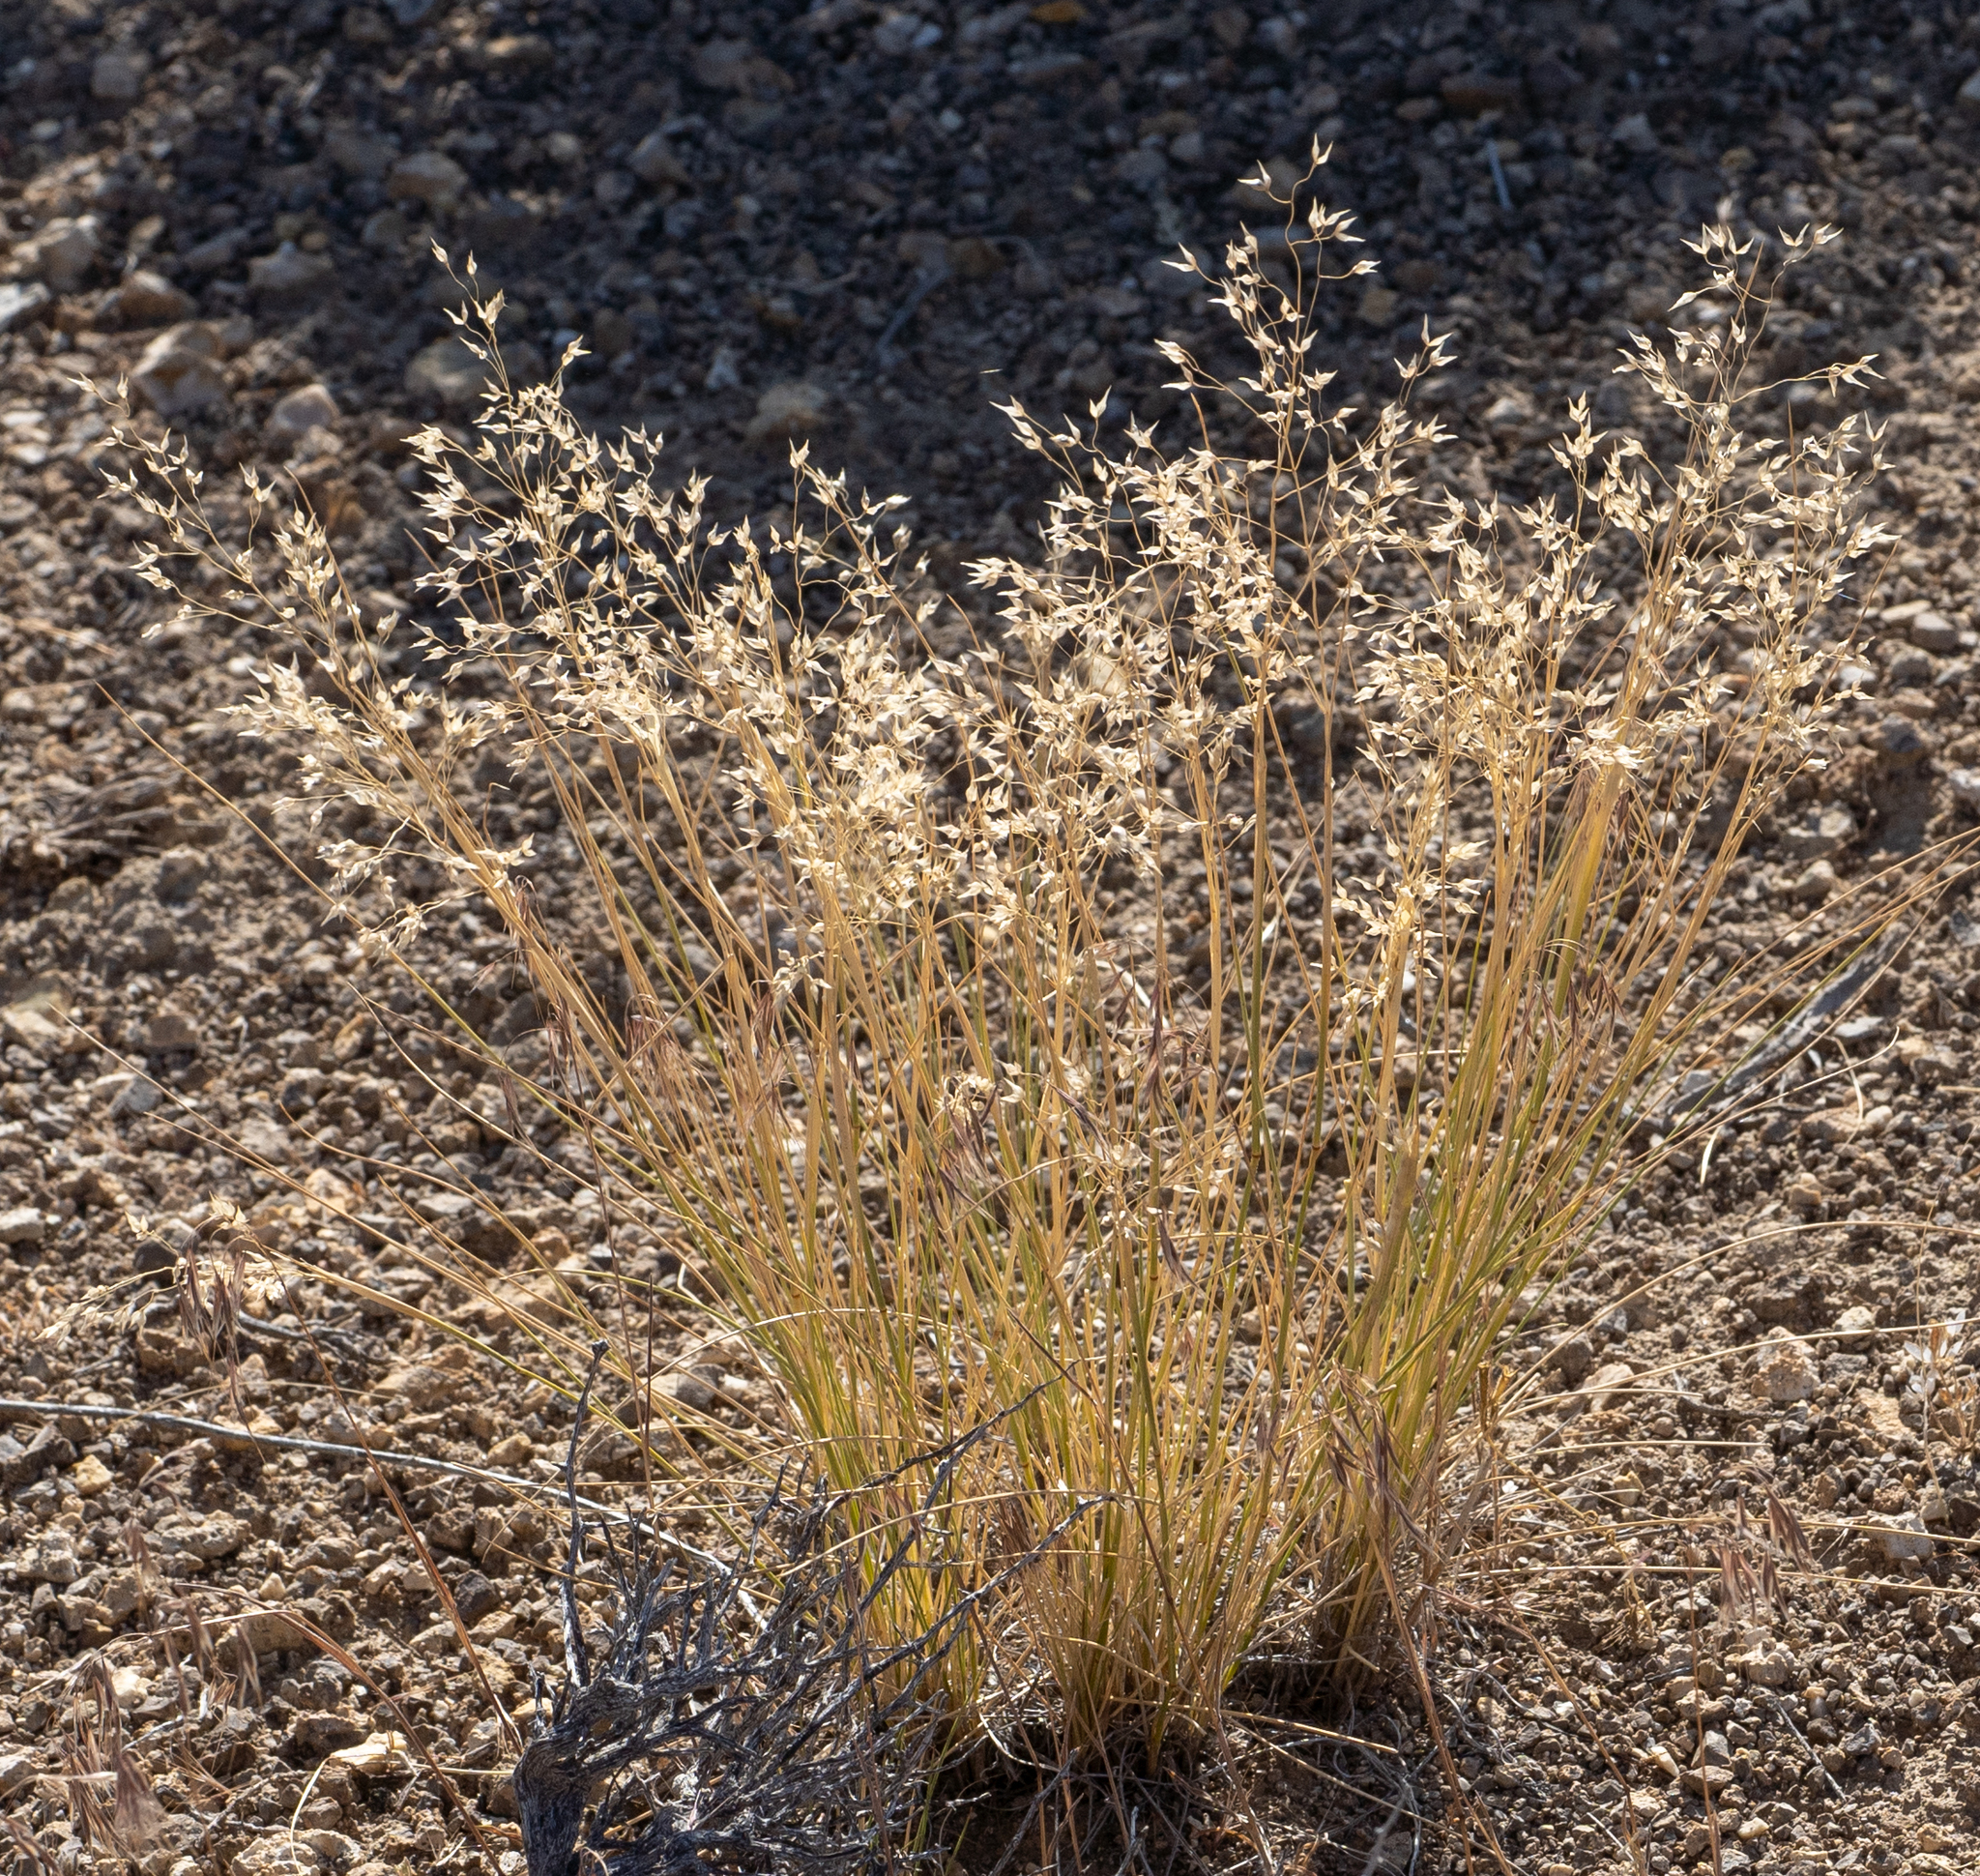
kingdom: Plantae
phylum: Tracheophyta
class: Liliopsida
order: Poales
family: Poaceae
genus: Eriocoma
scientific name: Eriocoma hymenoides
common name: Indian mountain ricegrass
